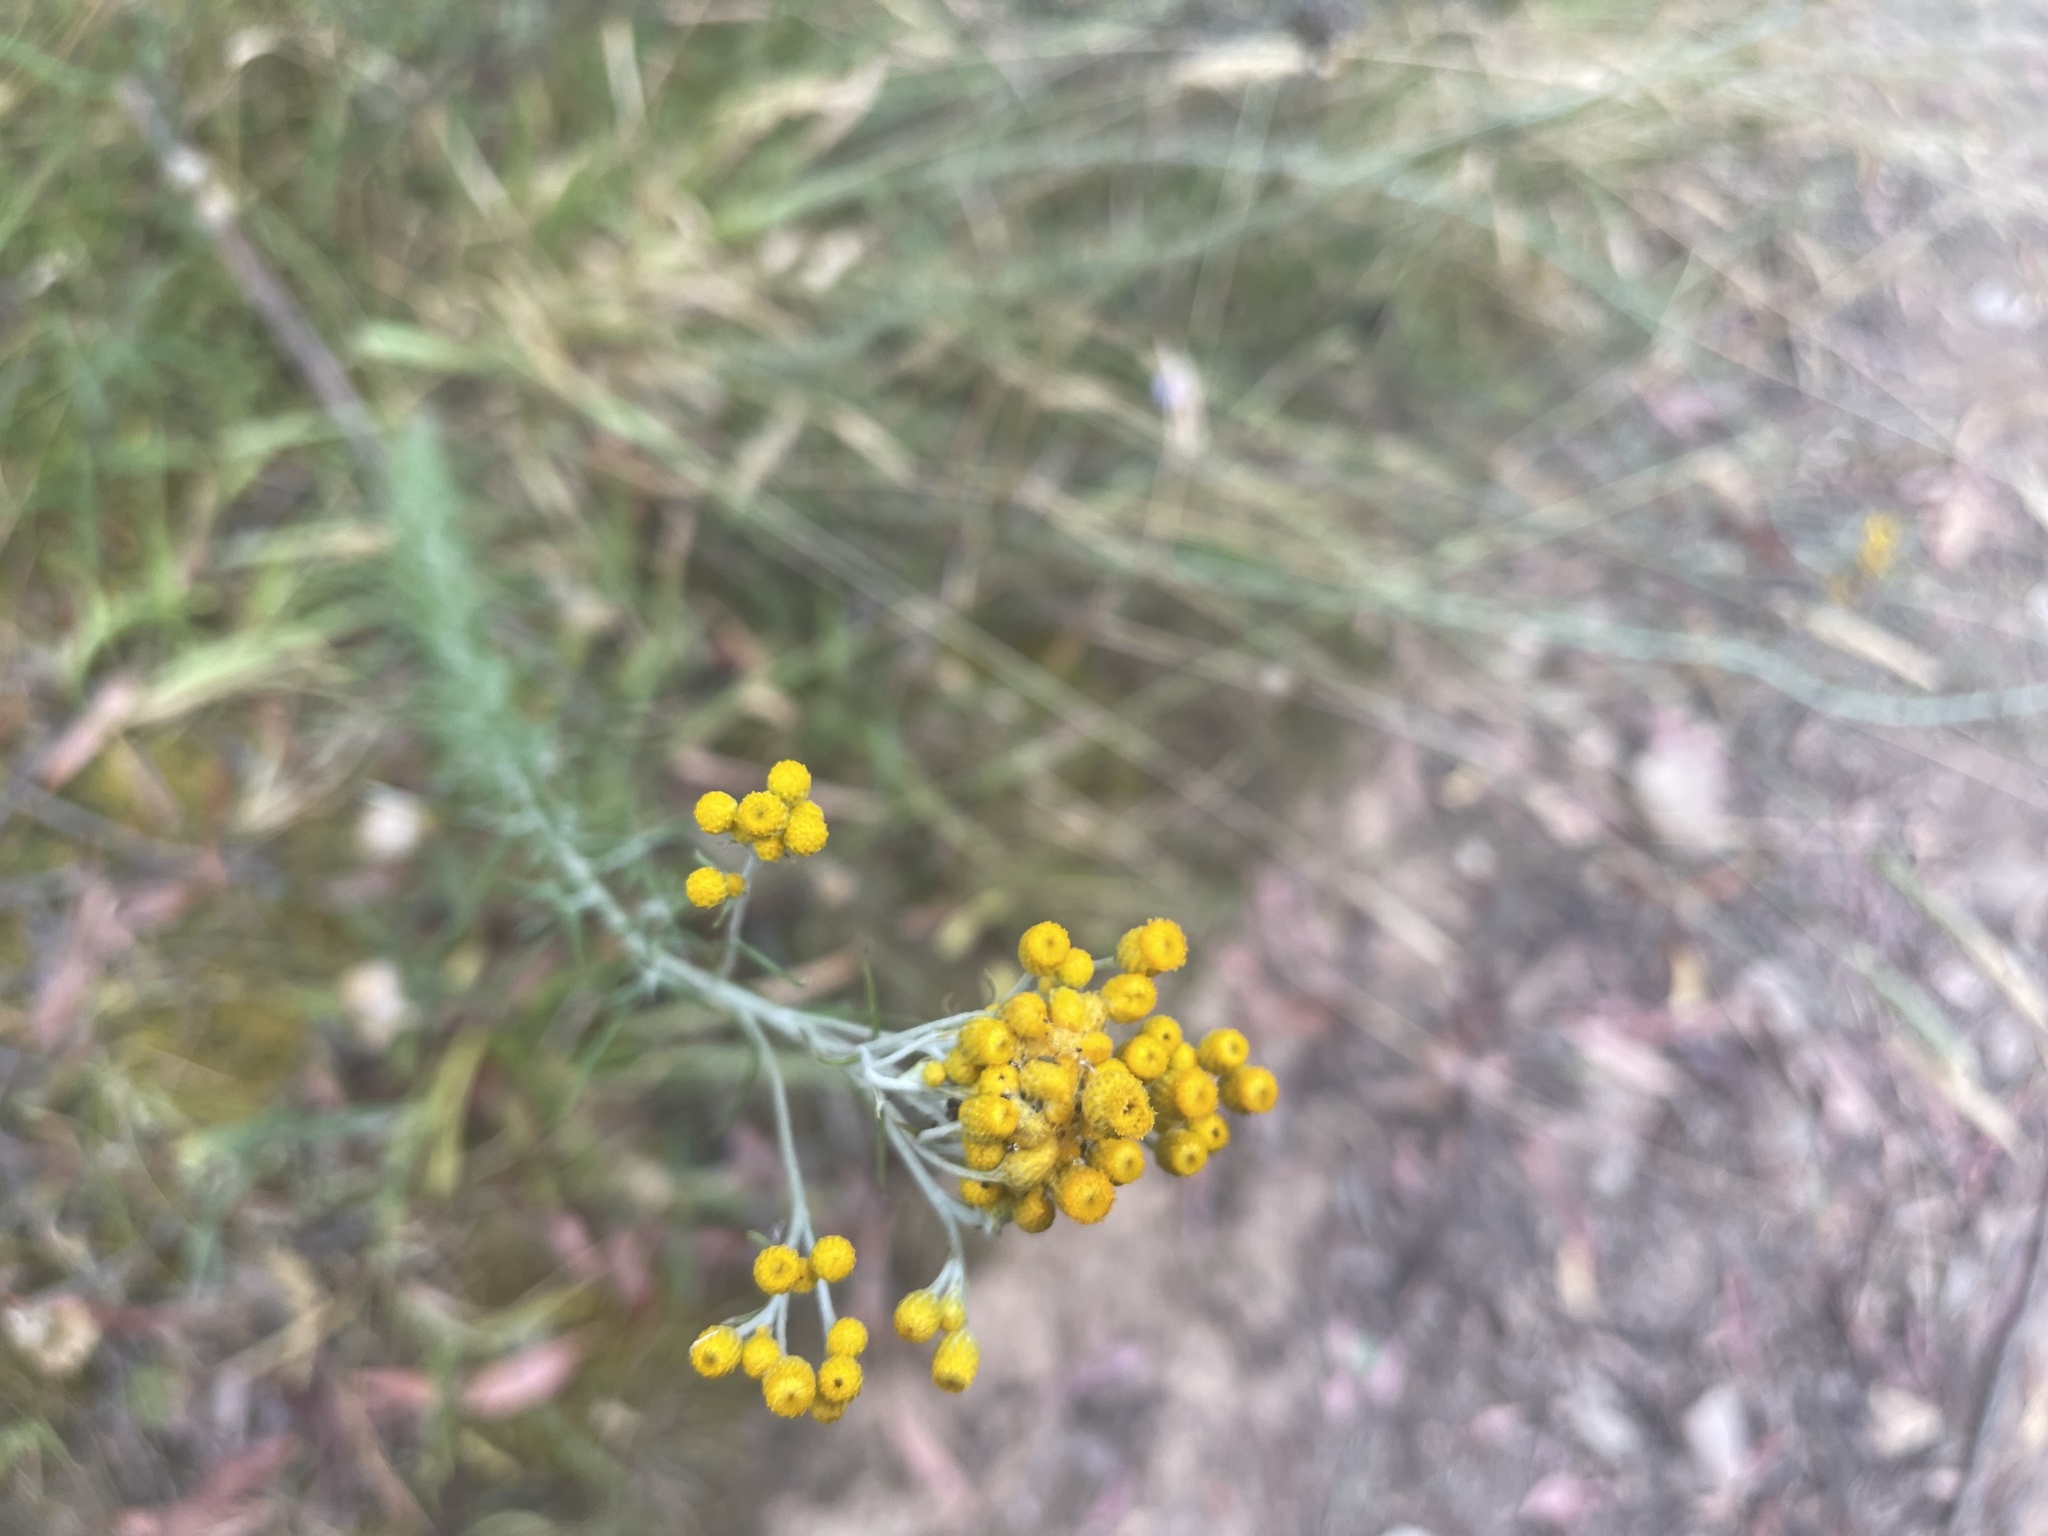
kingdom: Plantae
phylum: Tracheophyta
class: Magnoliopsida
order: Asterales
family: Asteraceae
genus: Chrysocephalum
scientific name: Chrysocephalum semipapposum
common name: Clustered everlasting
